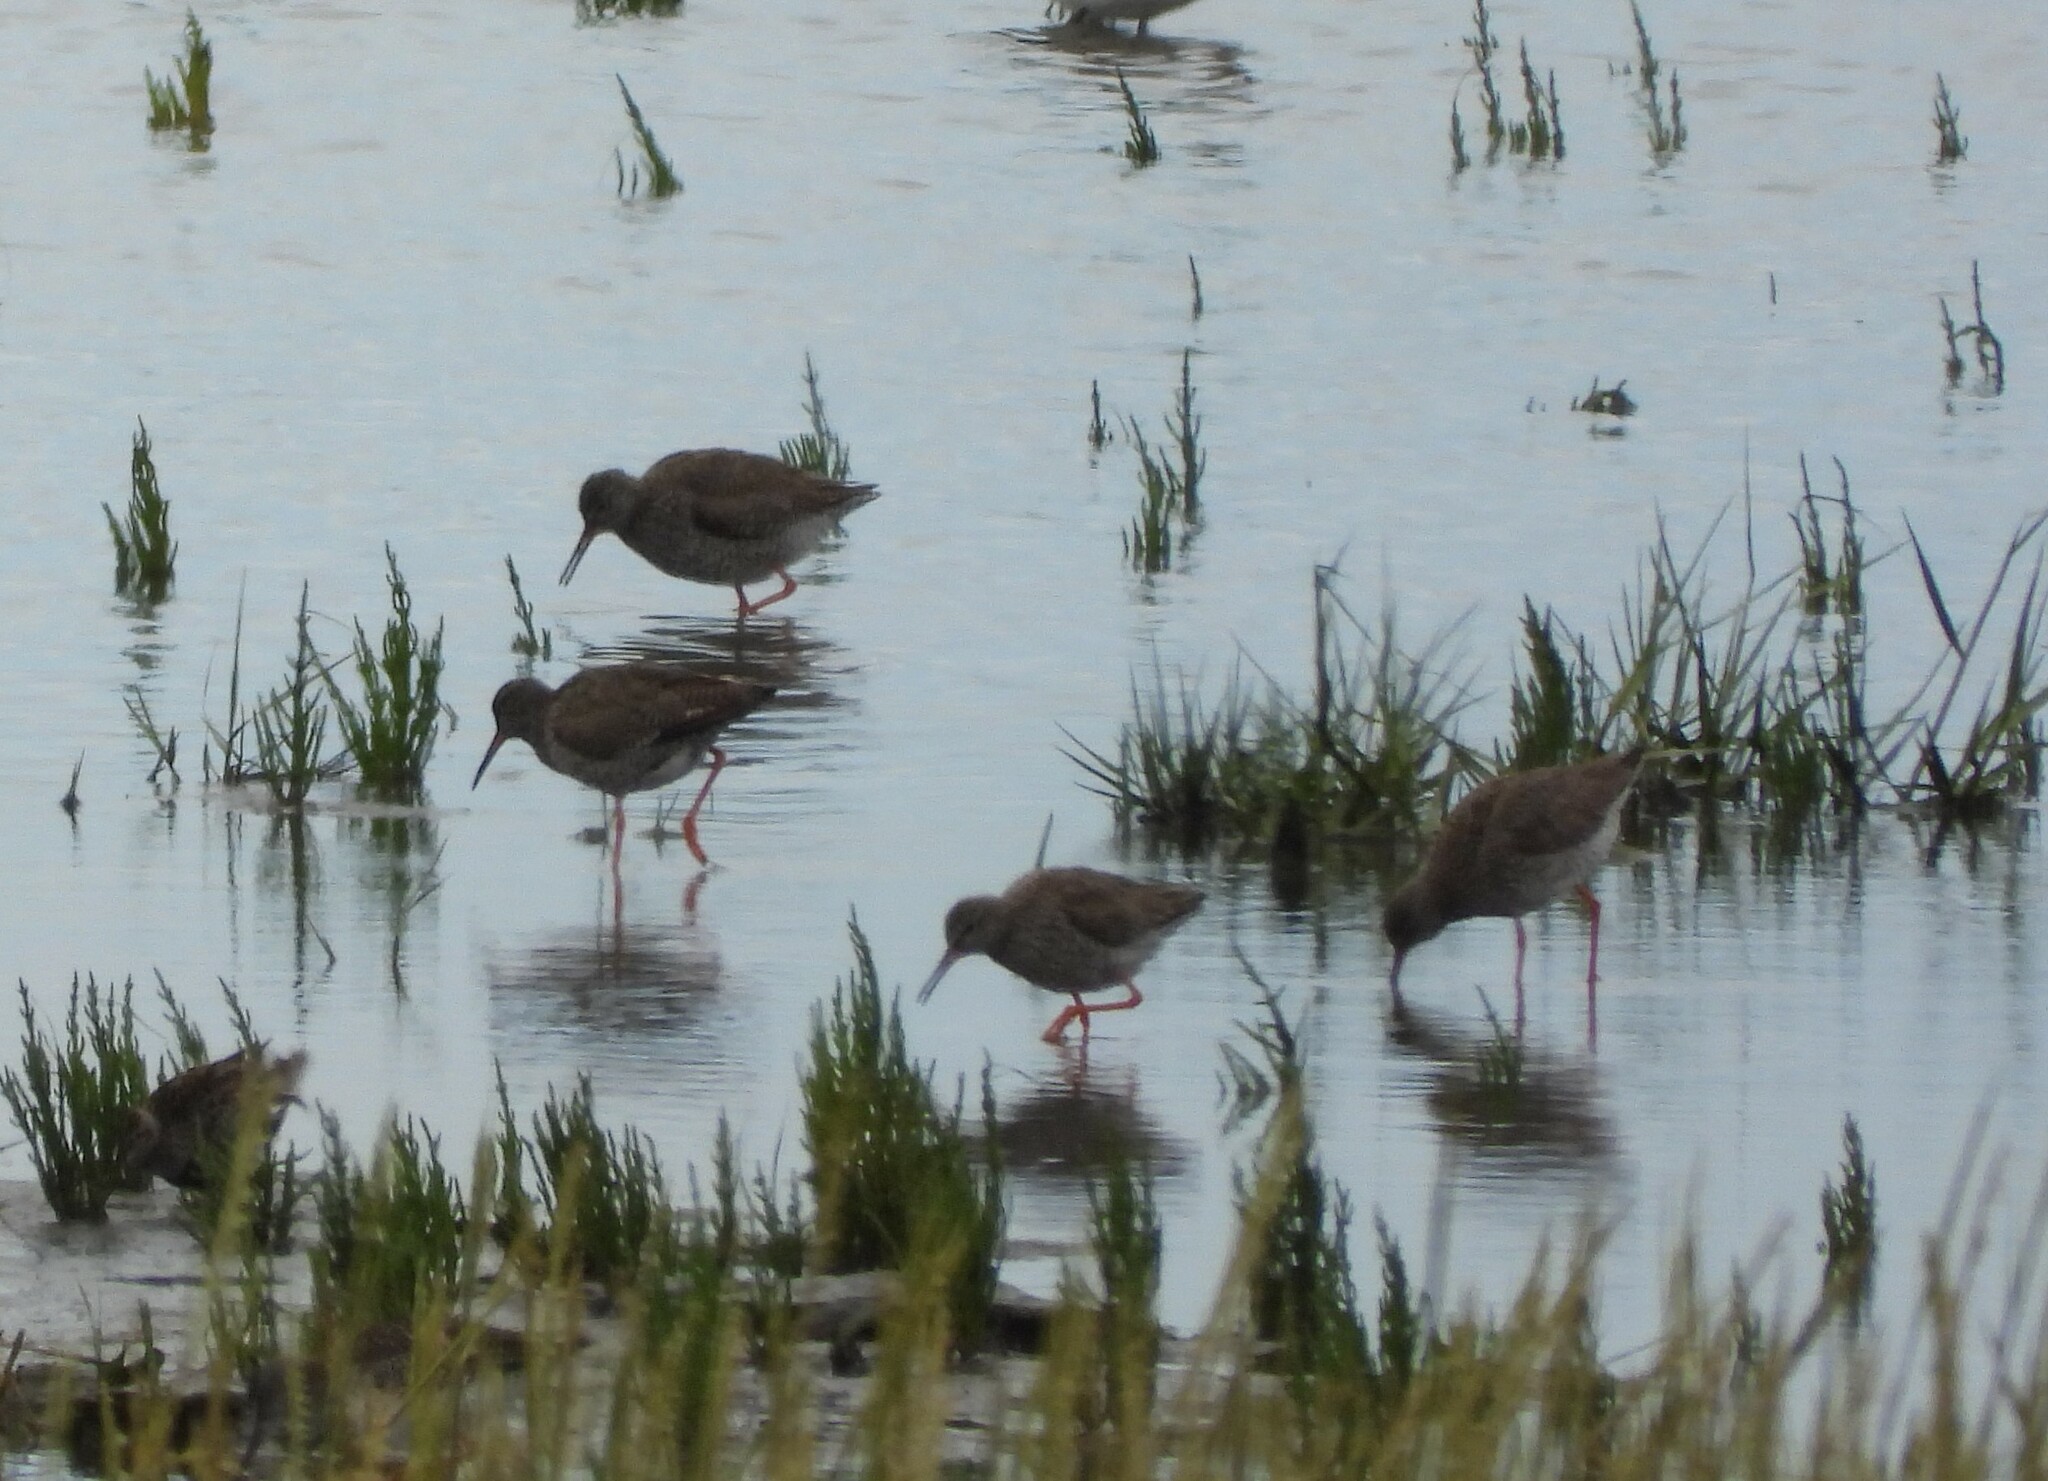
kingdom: Animalia
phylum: Chordata
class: Aves
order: Charadriiformes
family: Scolopacidae
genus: Tringa
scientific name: Tringa totanus
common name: Common redshank
